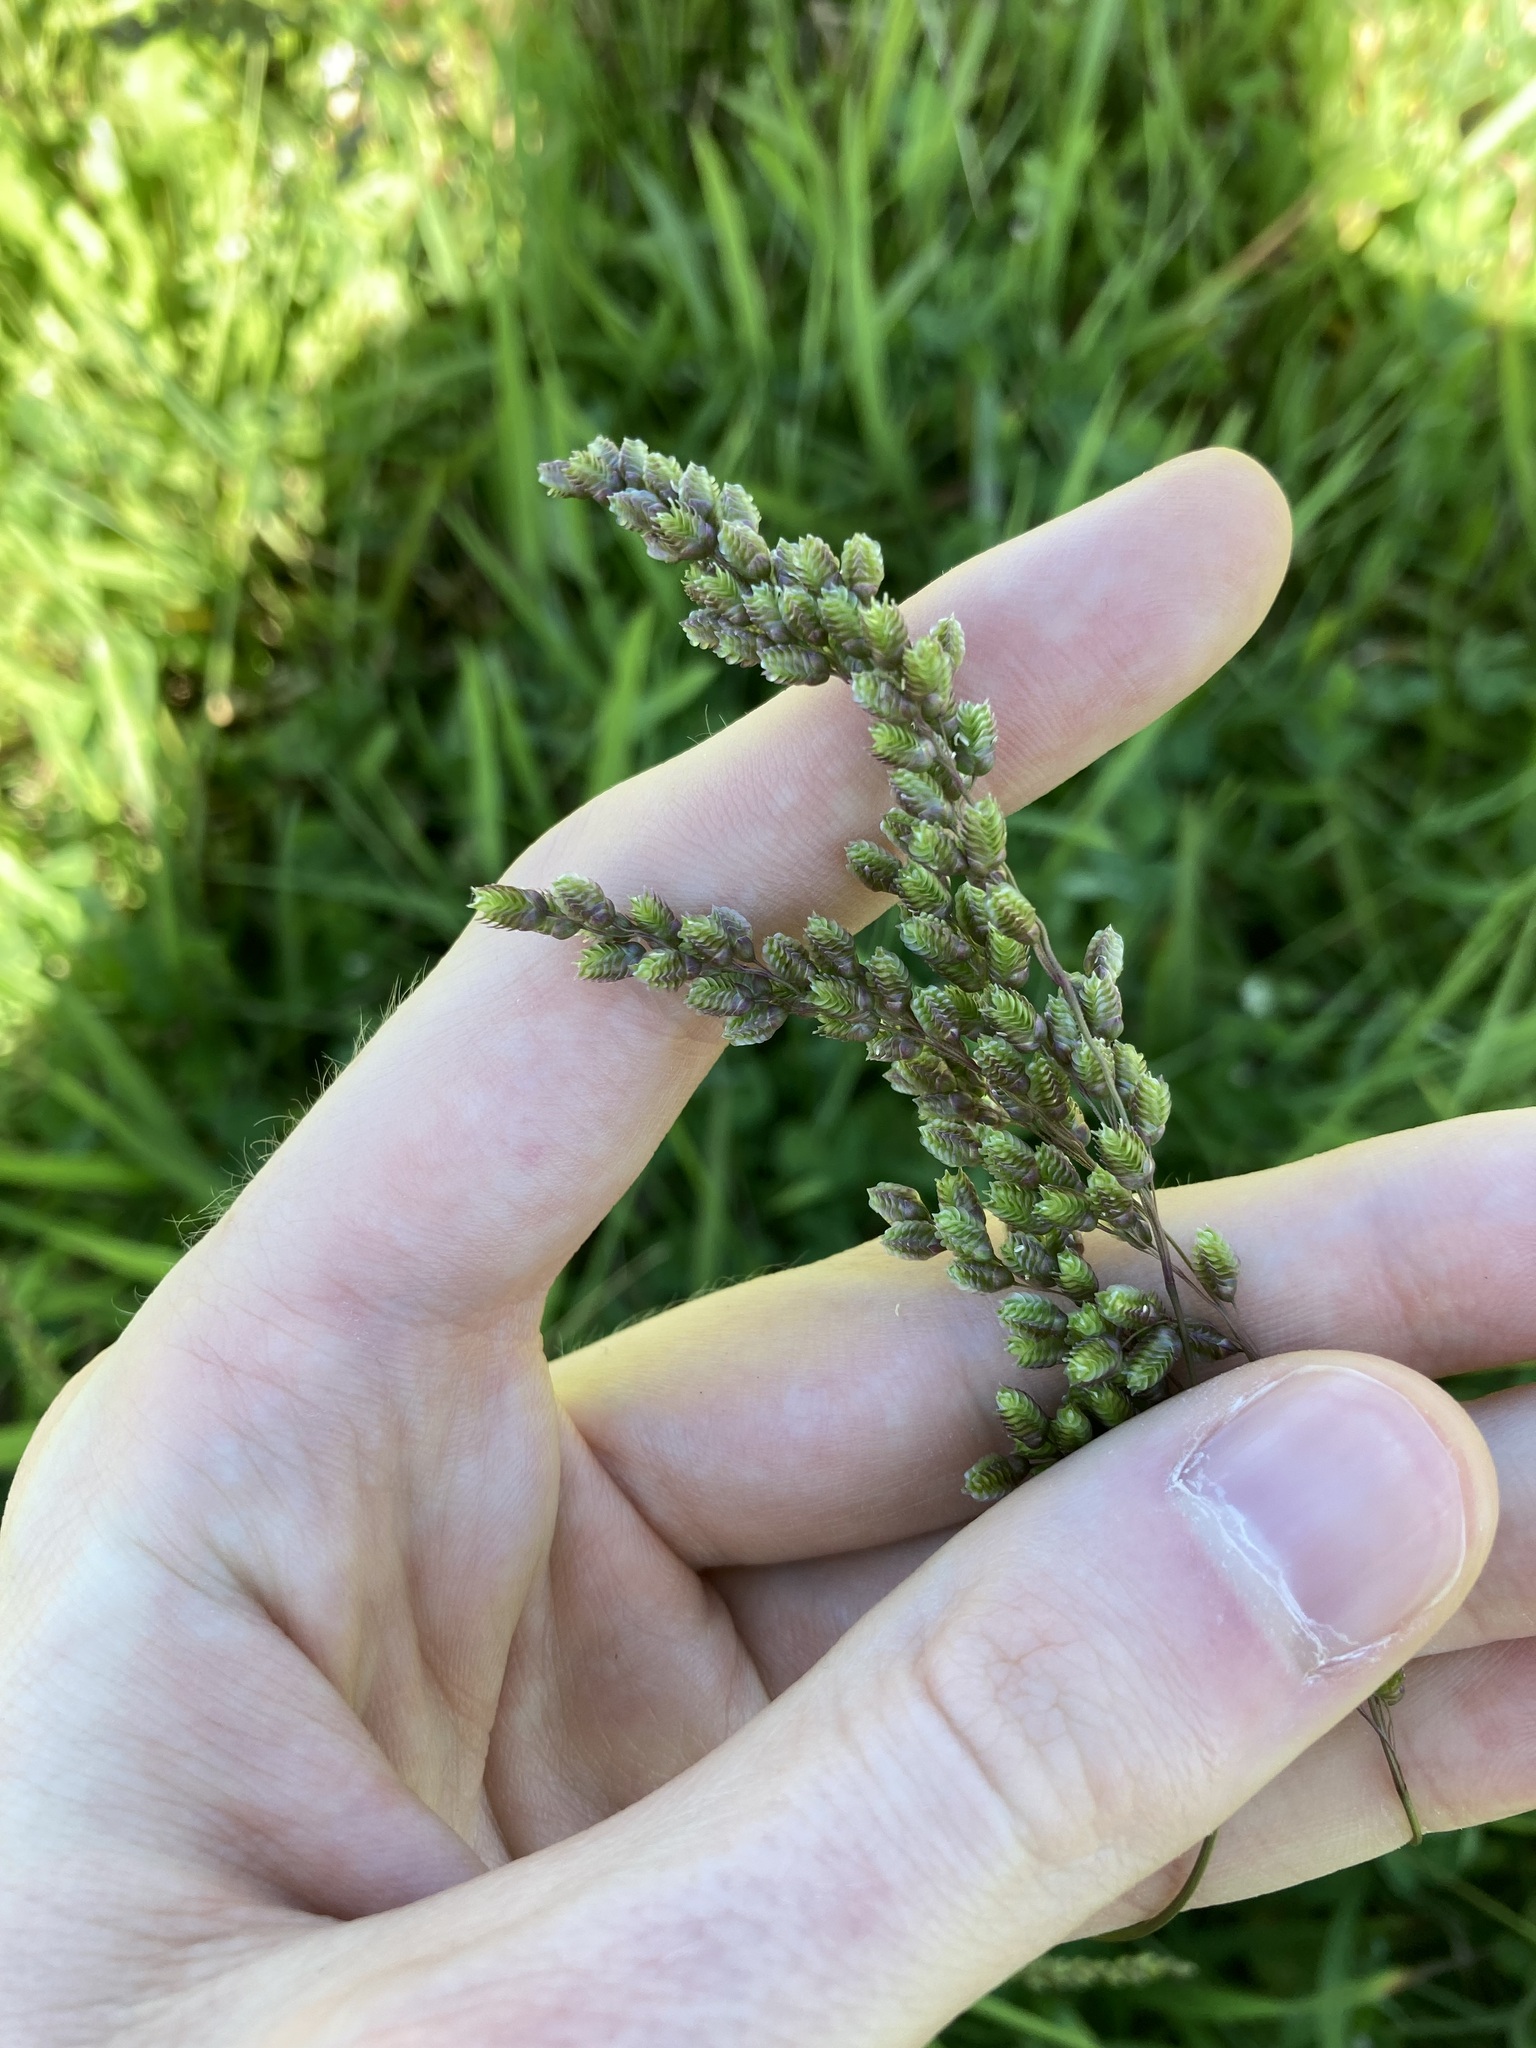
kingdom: Plantae
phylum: Tracheophyta
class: Liliopsida
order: Poales
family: Poaceae
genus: Chascolytrum
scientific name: Chascolytrum subaristatum
